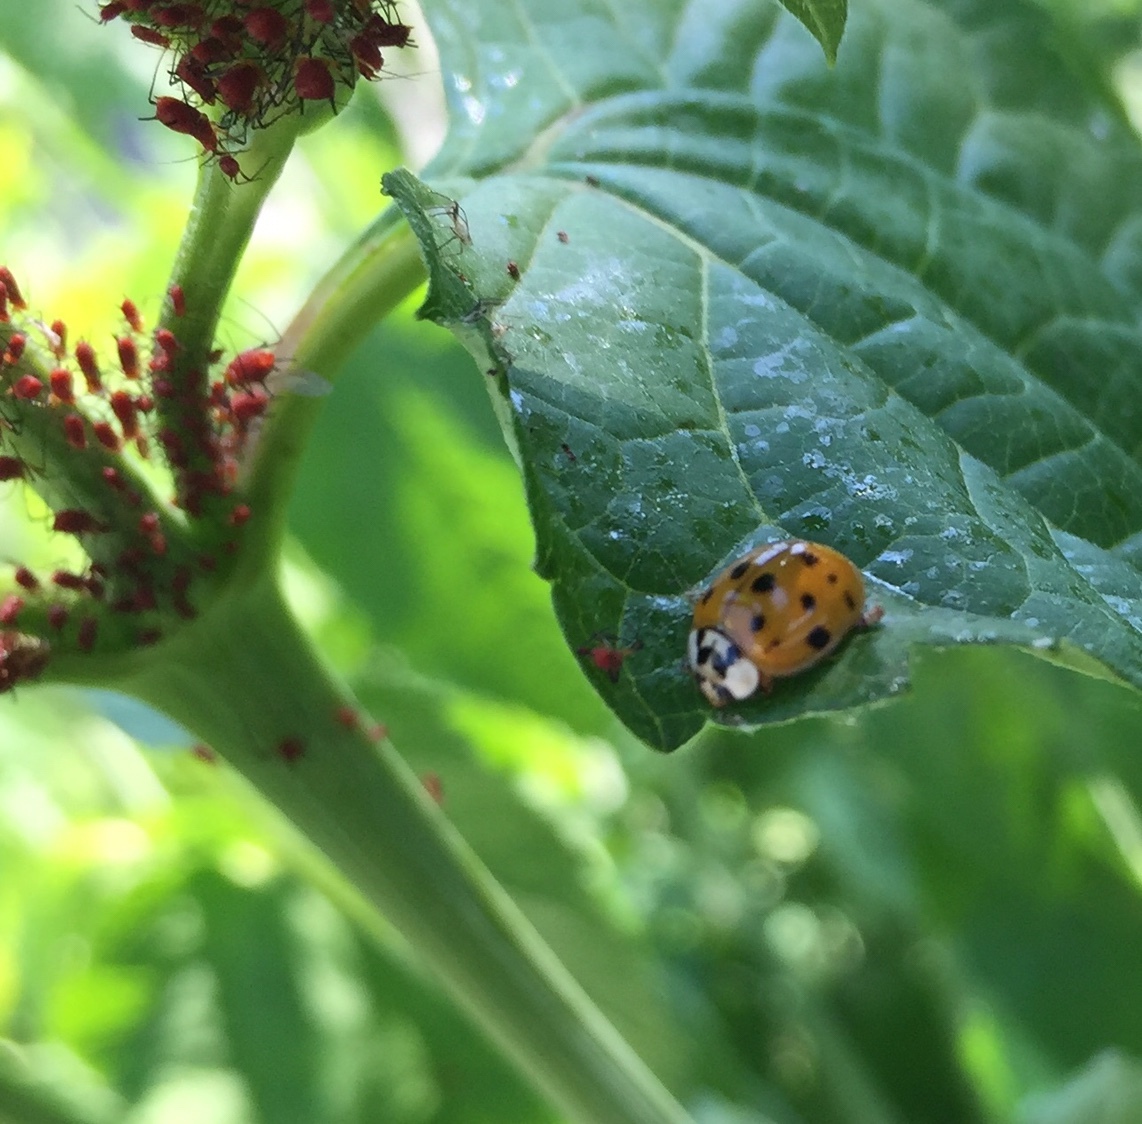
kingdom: Animalia
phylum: Arthropoda
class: Insecta
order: Coleoptera
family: Coccinellidae
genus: Harmonia
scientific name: Harmonia axyridis
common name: Harlequin ladybird
